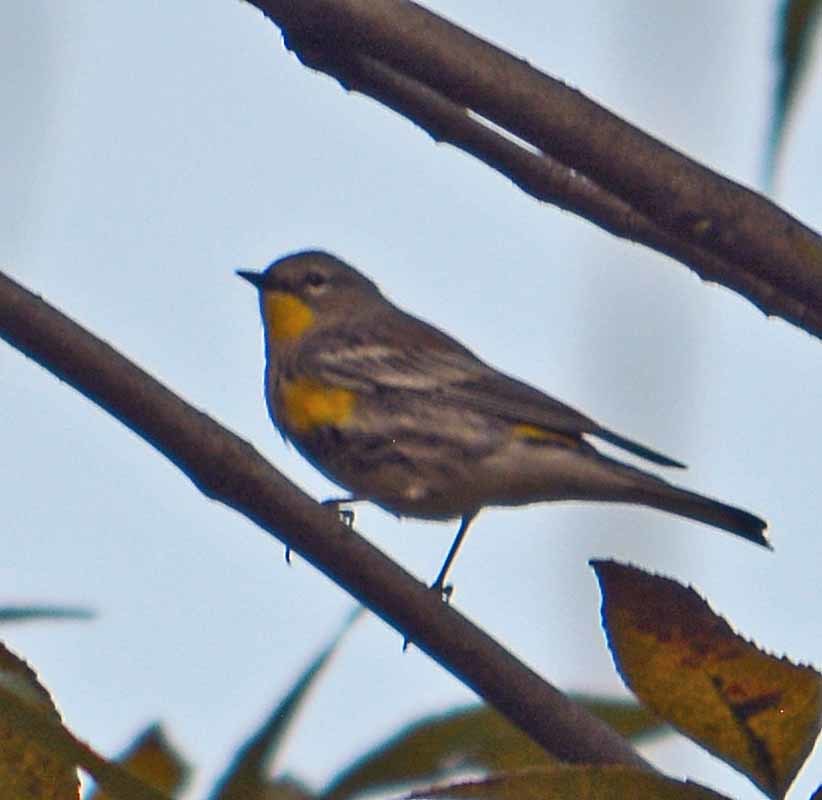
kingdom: Animalia
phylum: Chordata
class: Aves
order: Passeriformes
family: Parulidae
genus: Setophaga
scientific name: Setophaga coronata
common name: Myrtle warbler
